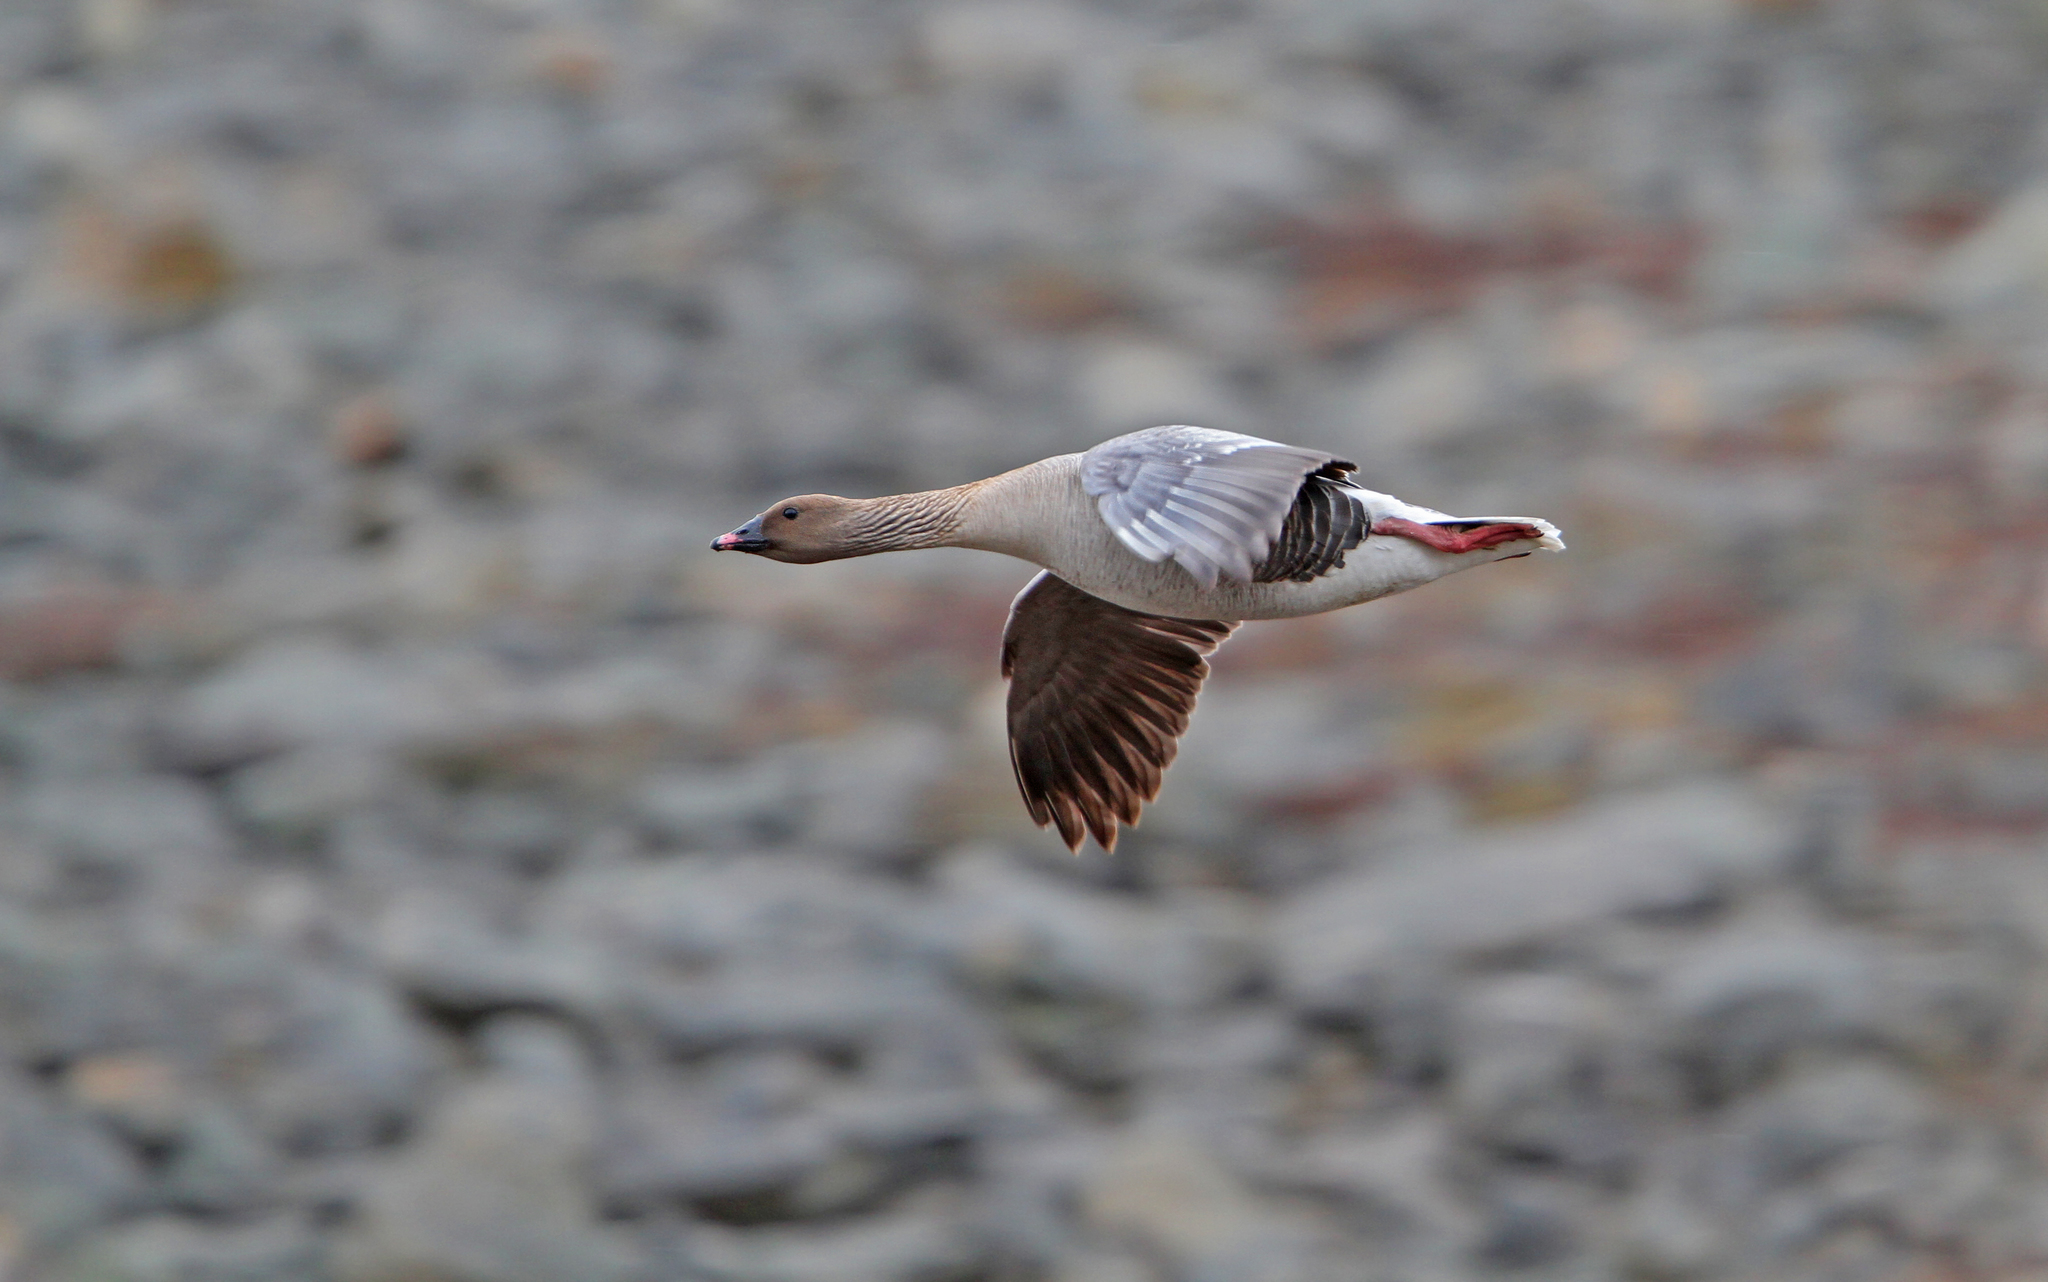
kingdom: Animalia
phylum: Chordata
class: Aves
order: Anseriformes
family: Anatidae
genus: Anser
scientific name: Anser brachyrhynchus
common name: Pink-footed goose
